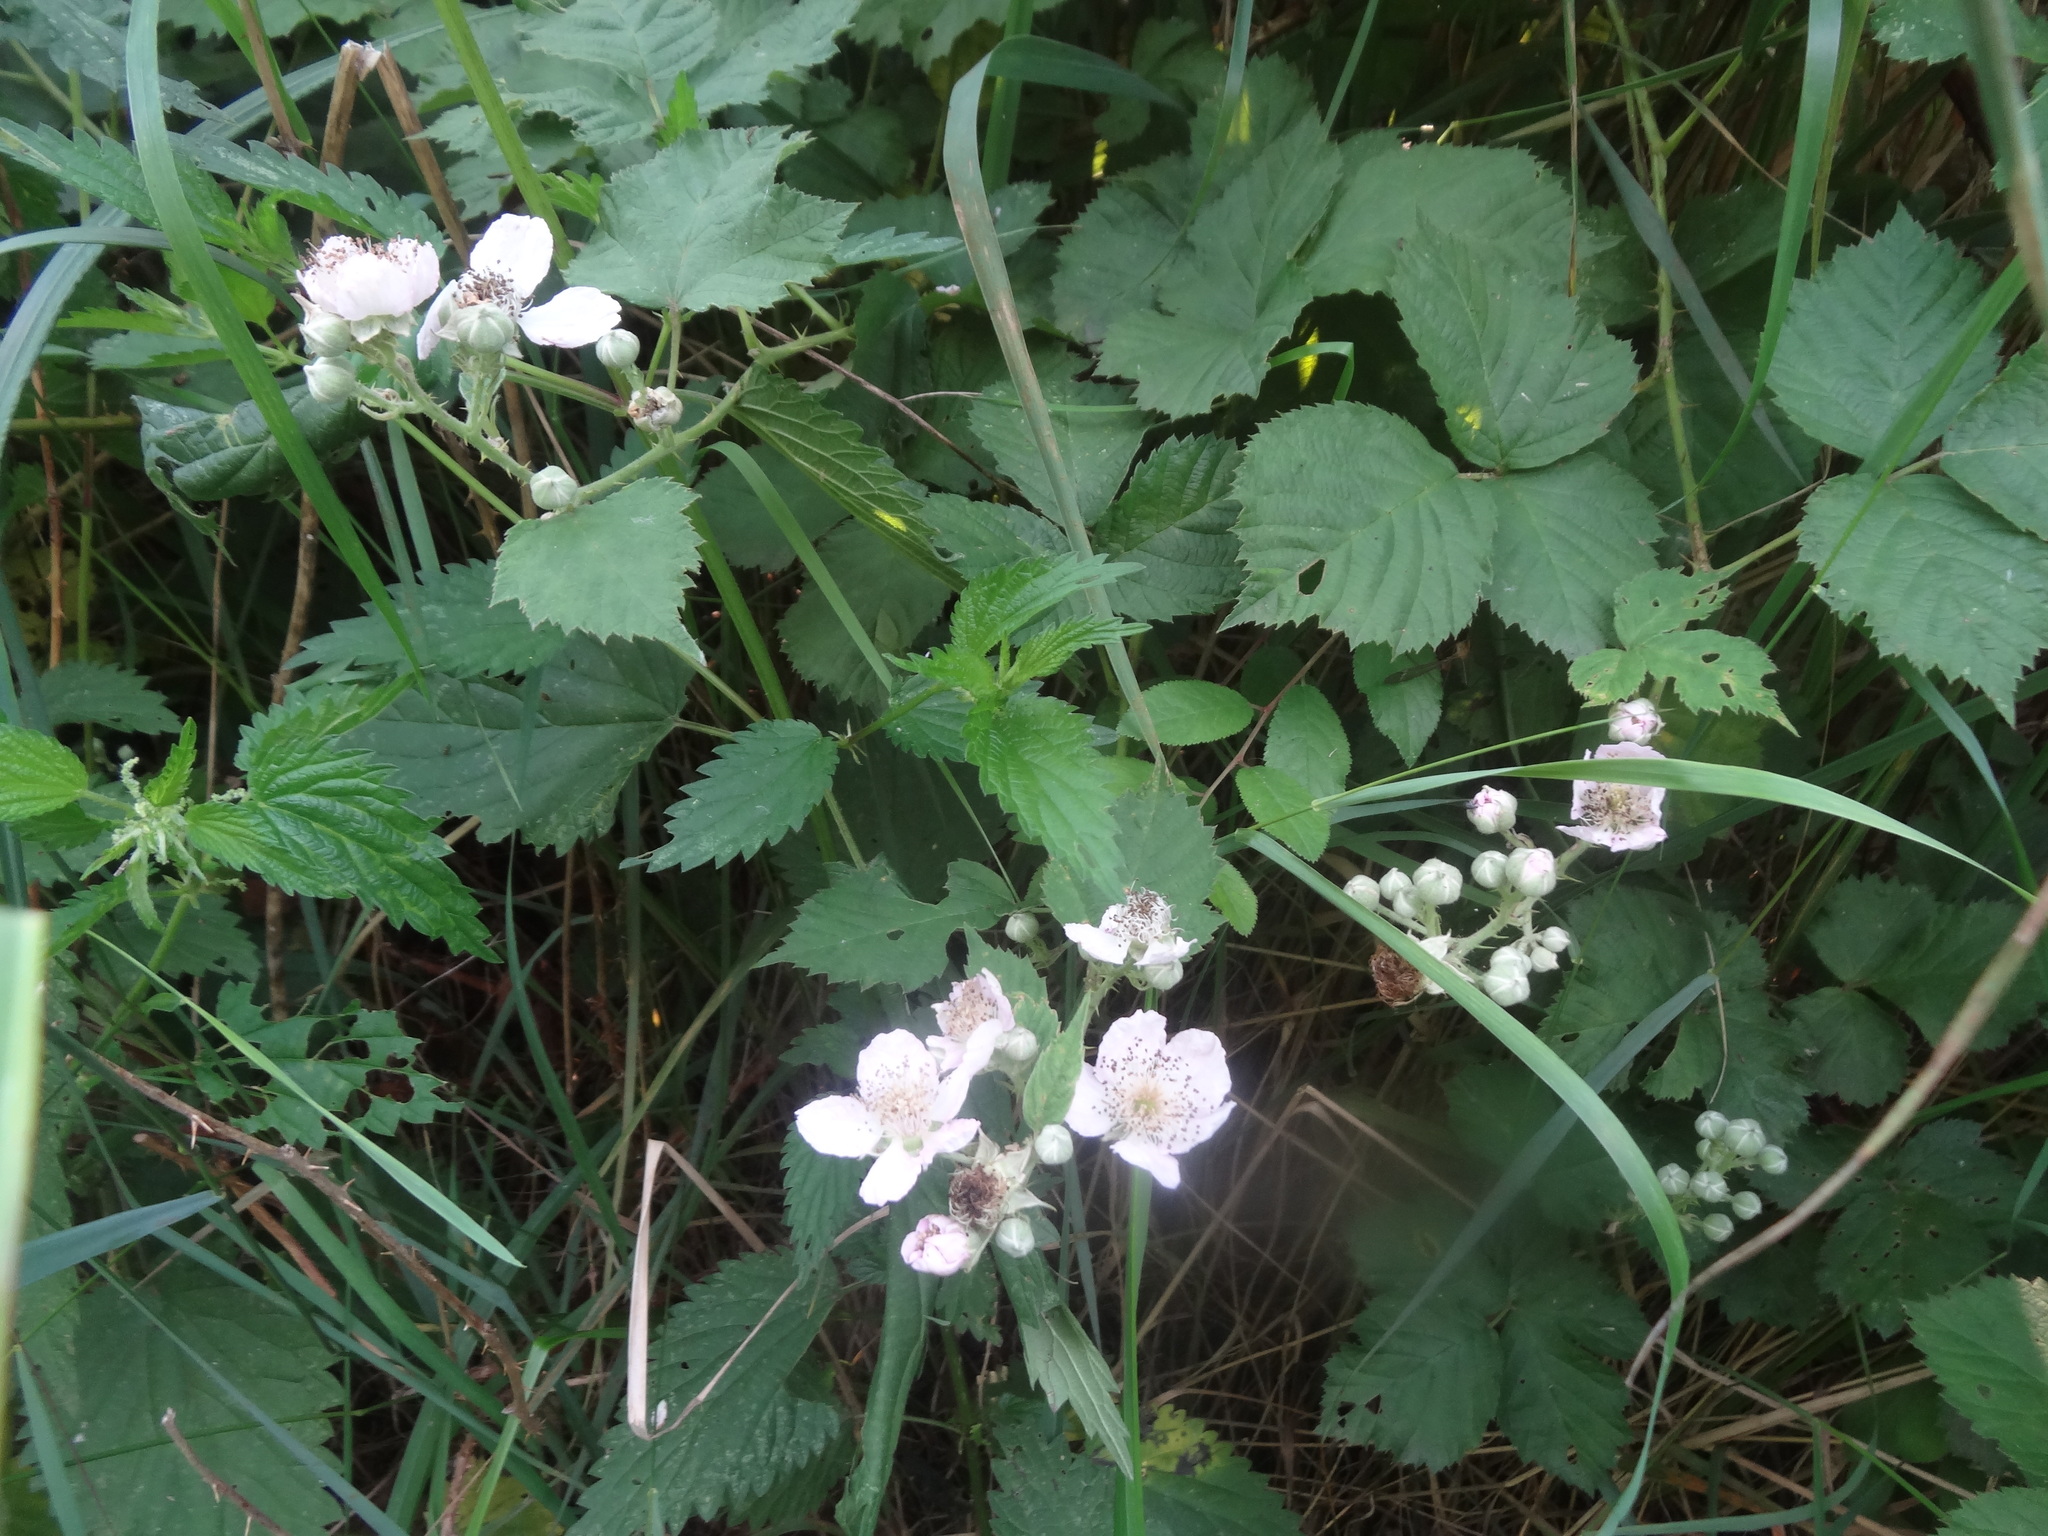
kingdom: Plantae
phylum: Tracheophyta
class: Magnoliopsida
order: Rosales
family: Rosaceae
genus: Rubus
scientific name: Rubus
